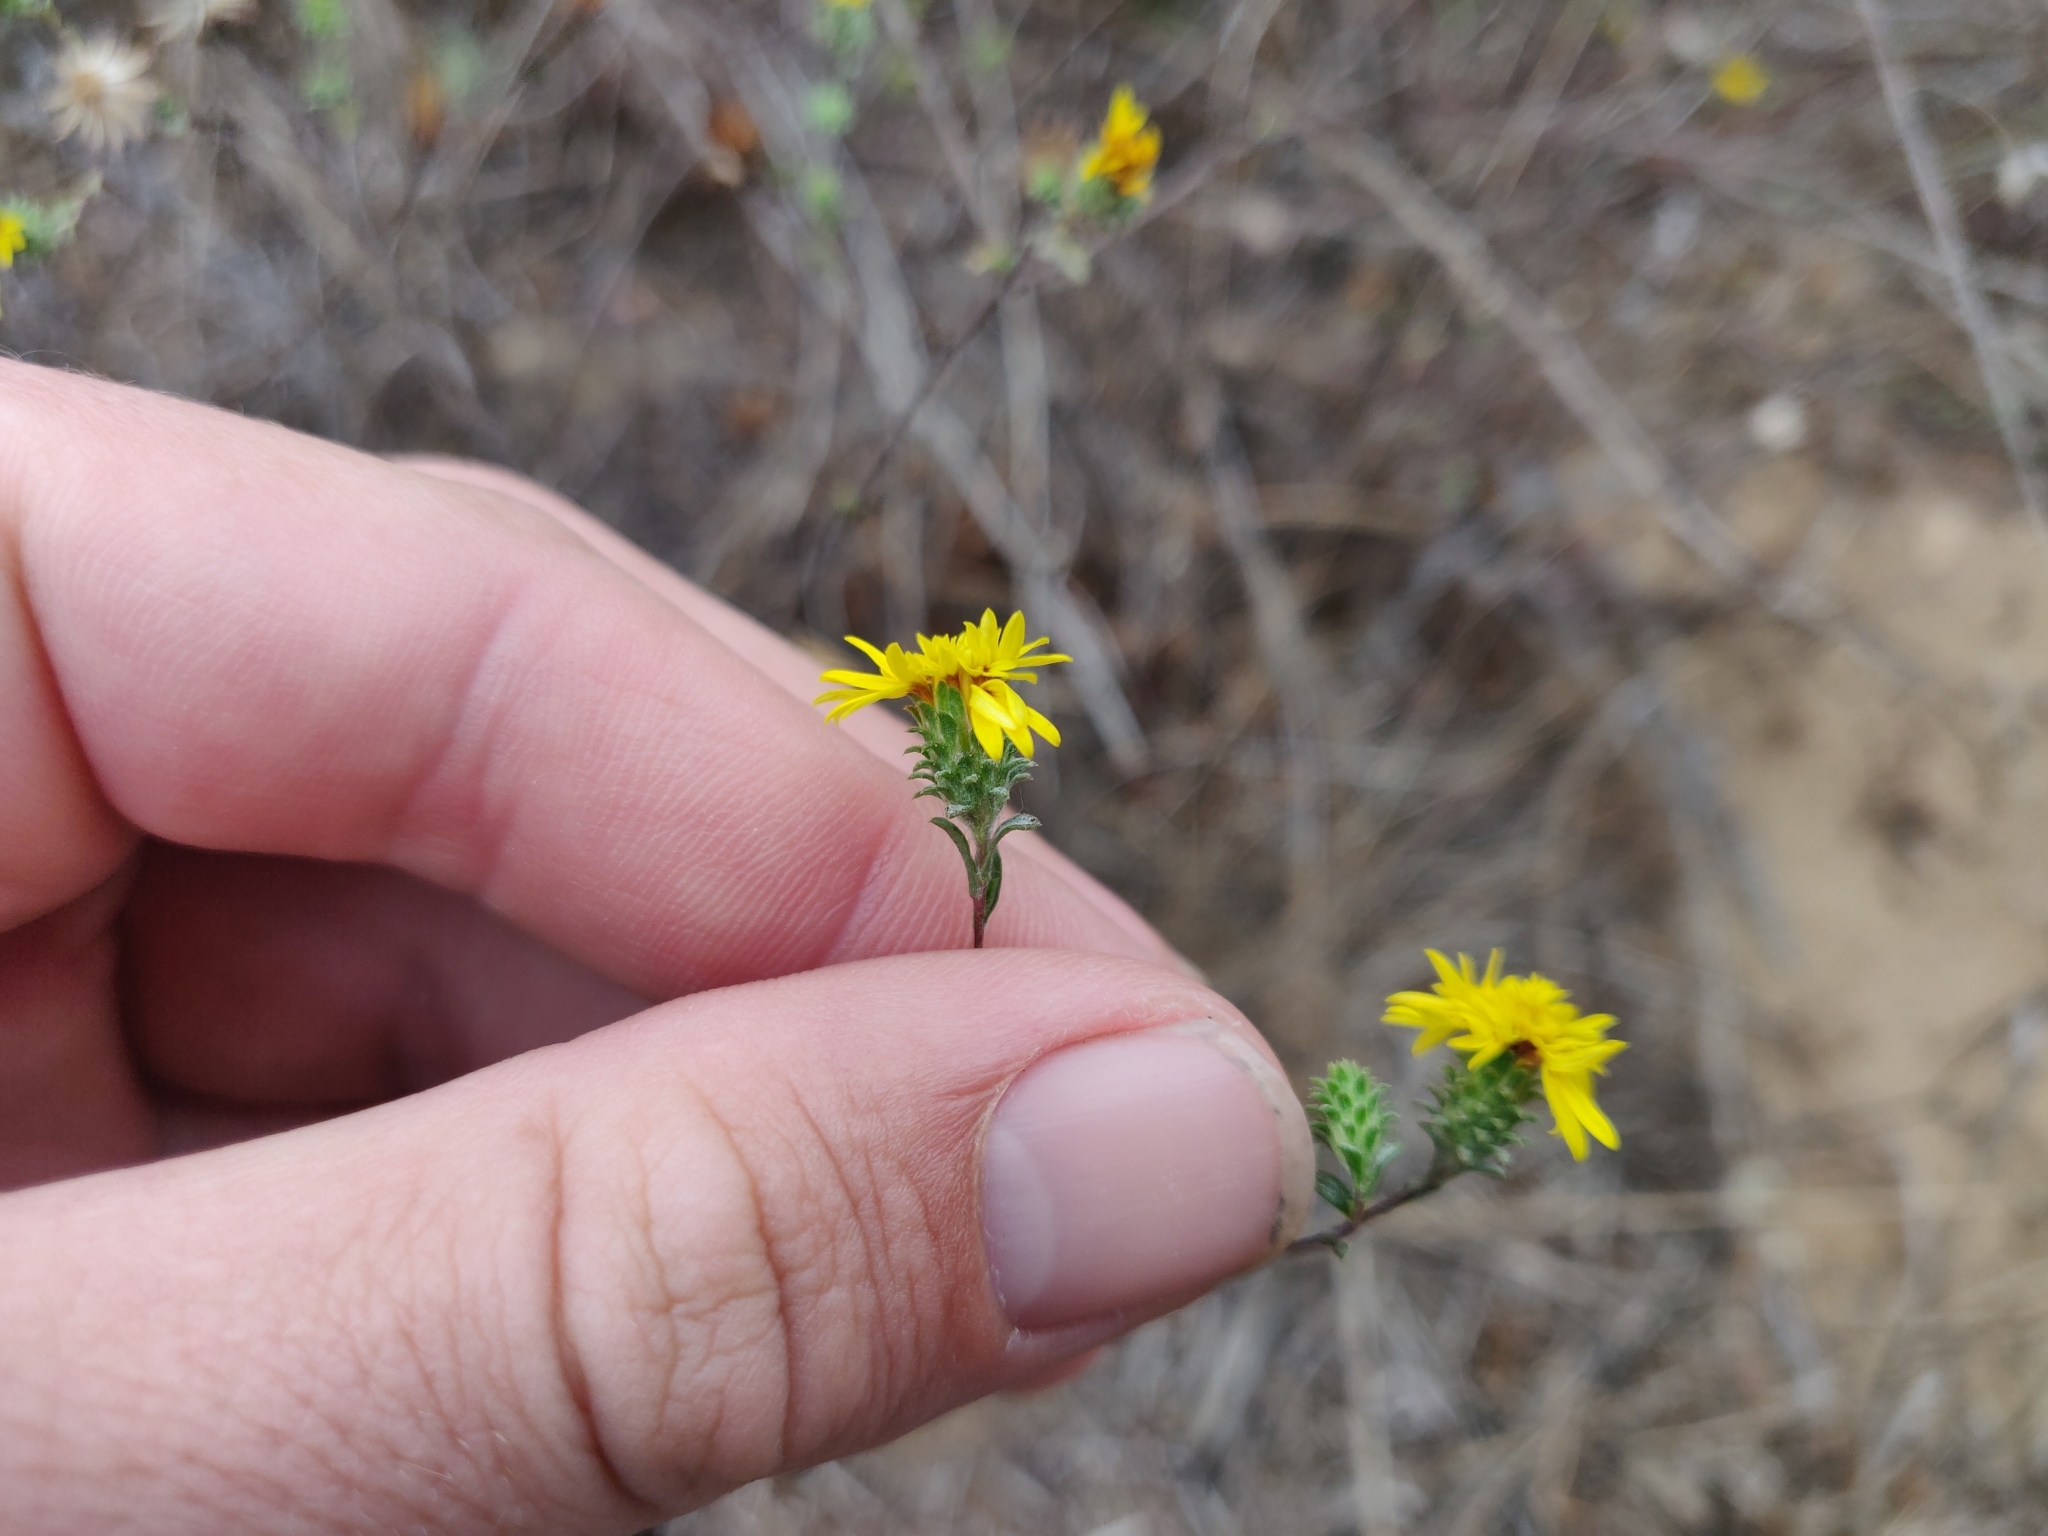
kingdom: Plantae
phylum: Tracheophyta
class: Magnoliopsida
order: Asterales
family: Asteraceae
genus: Lessingia
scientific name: Lessingia germanorum
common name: San francisco lessingia
